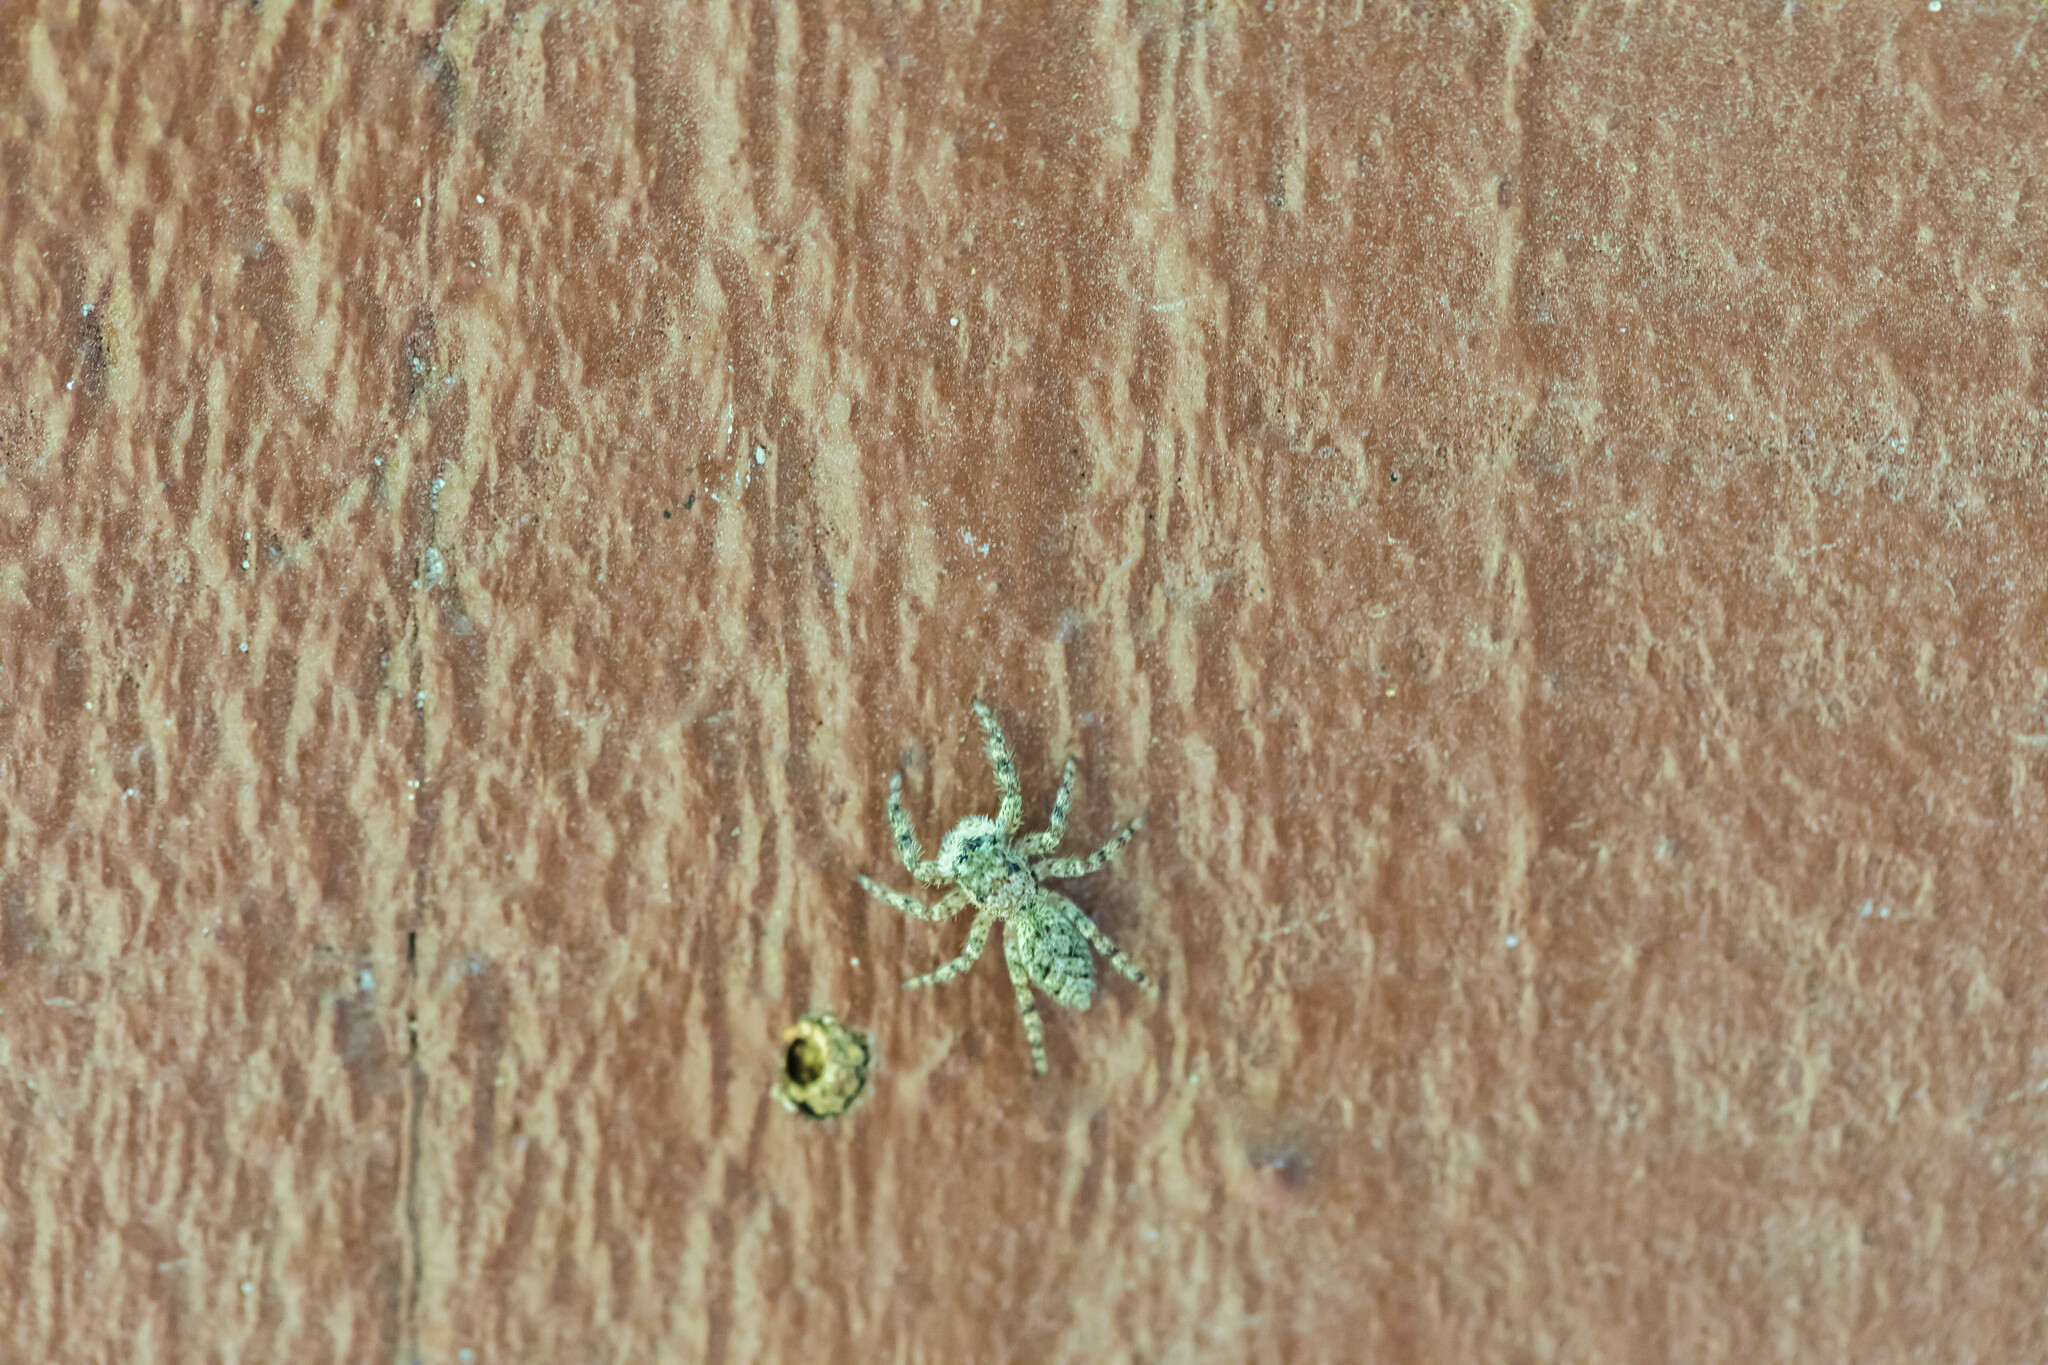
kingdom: Animalia
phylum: Arthropoda
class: Arachnida
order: Araneae
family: Salticidae
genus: Platycryptus
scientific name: Platycryptus undatus
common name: Tan jumping spider
